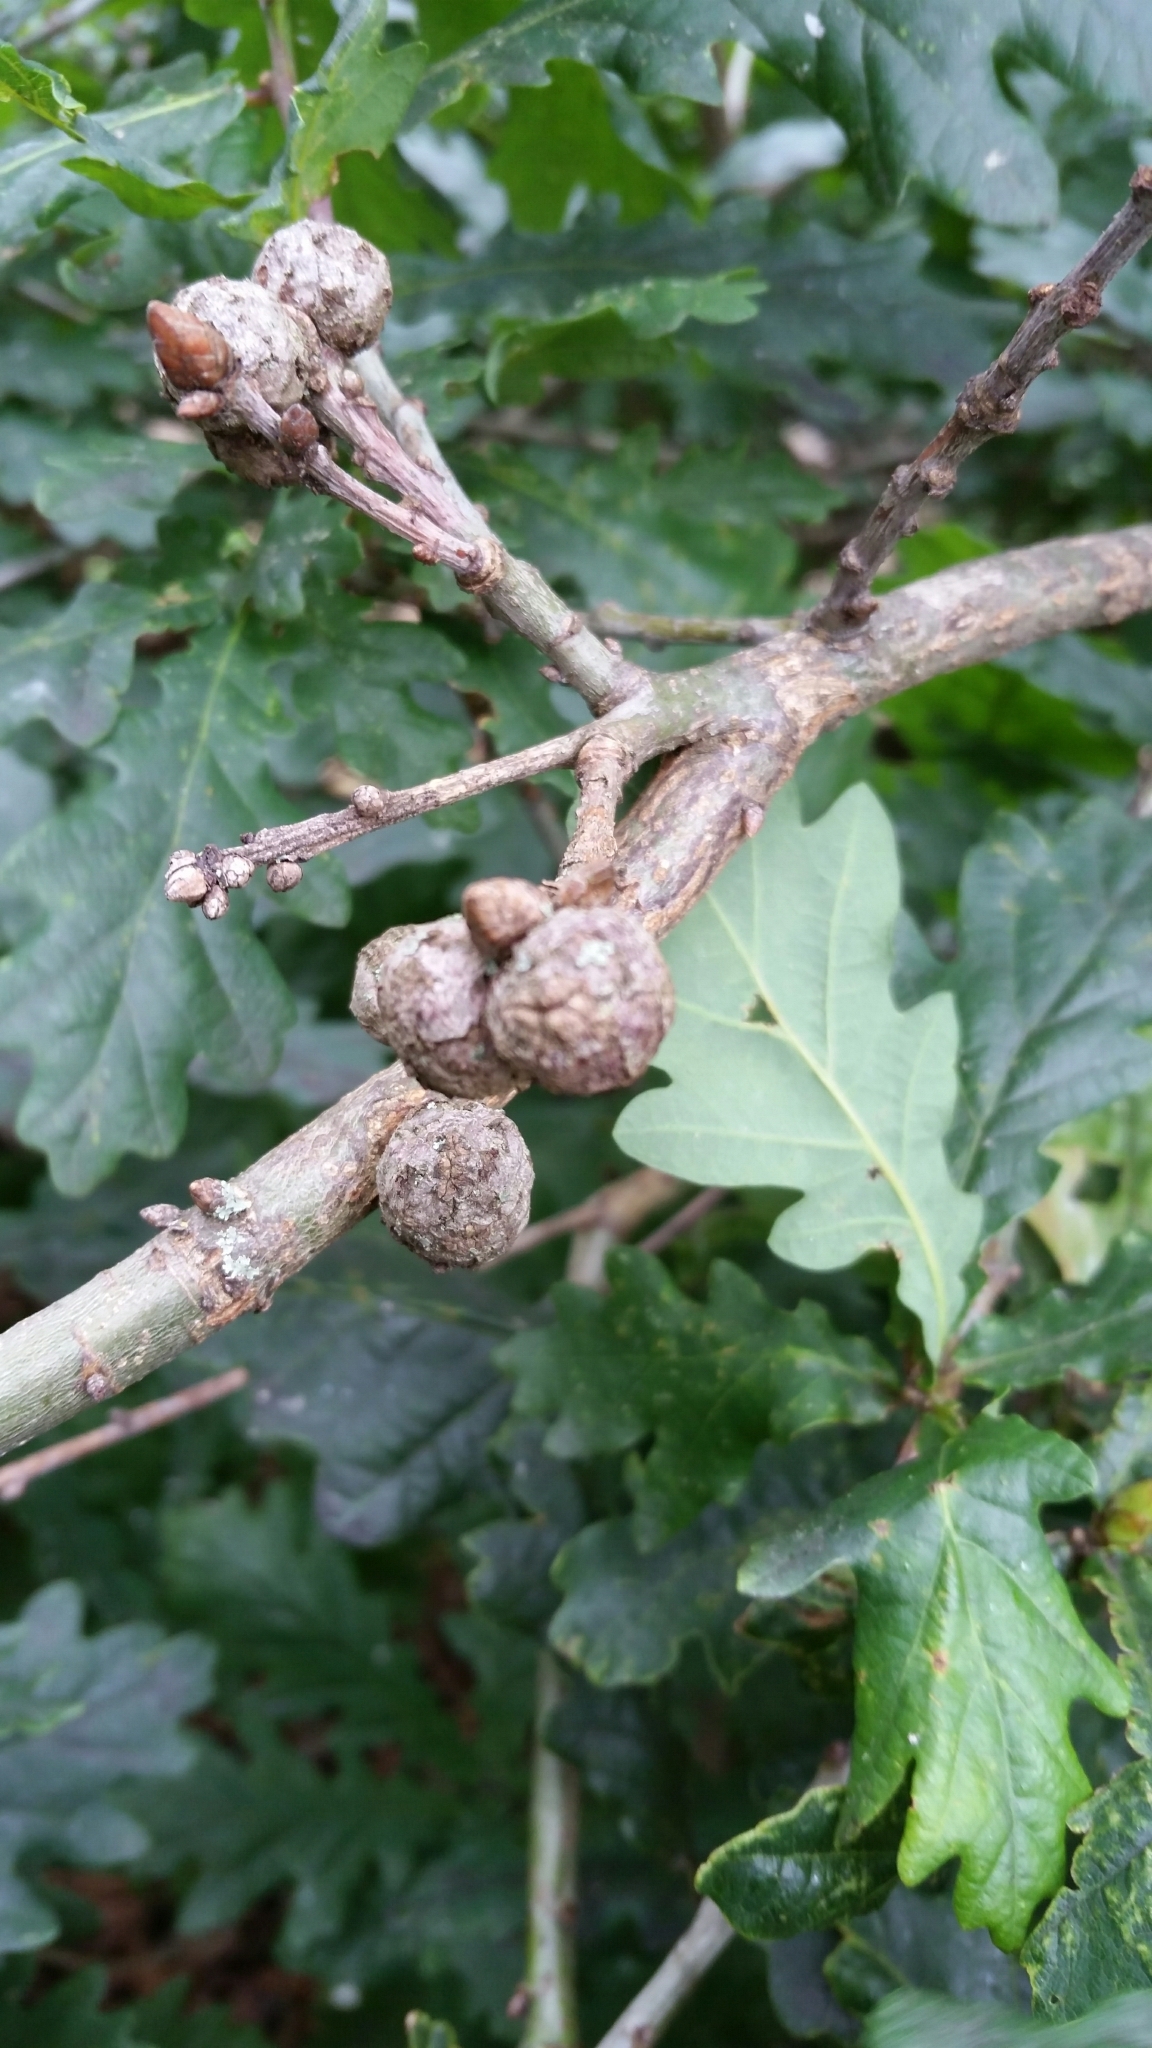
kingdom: Animalia
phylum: Arthropoda
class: Insecta
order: Hymenoptera
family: Cynipidae
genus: Andricus
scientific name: Andricus lignicolus
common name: Cola-nut gall
